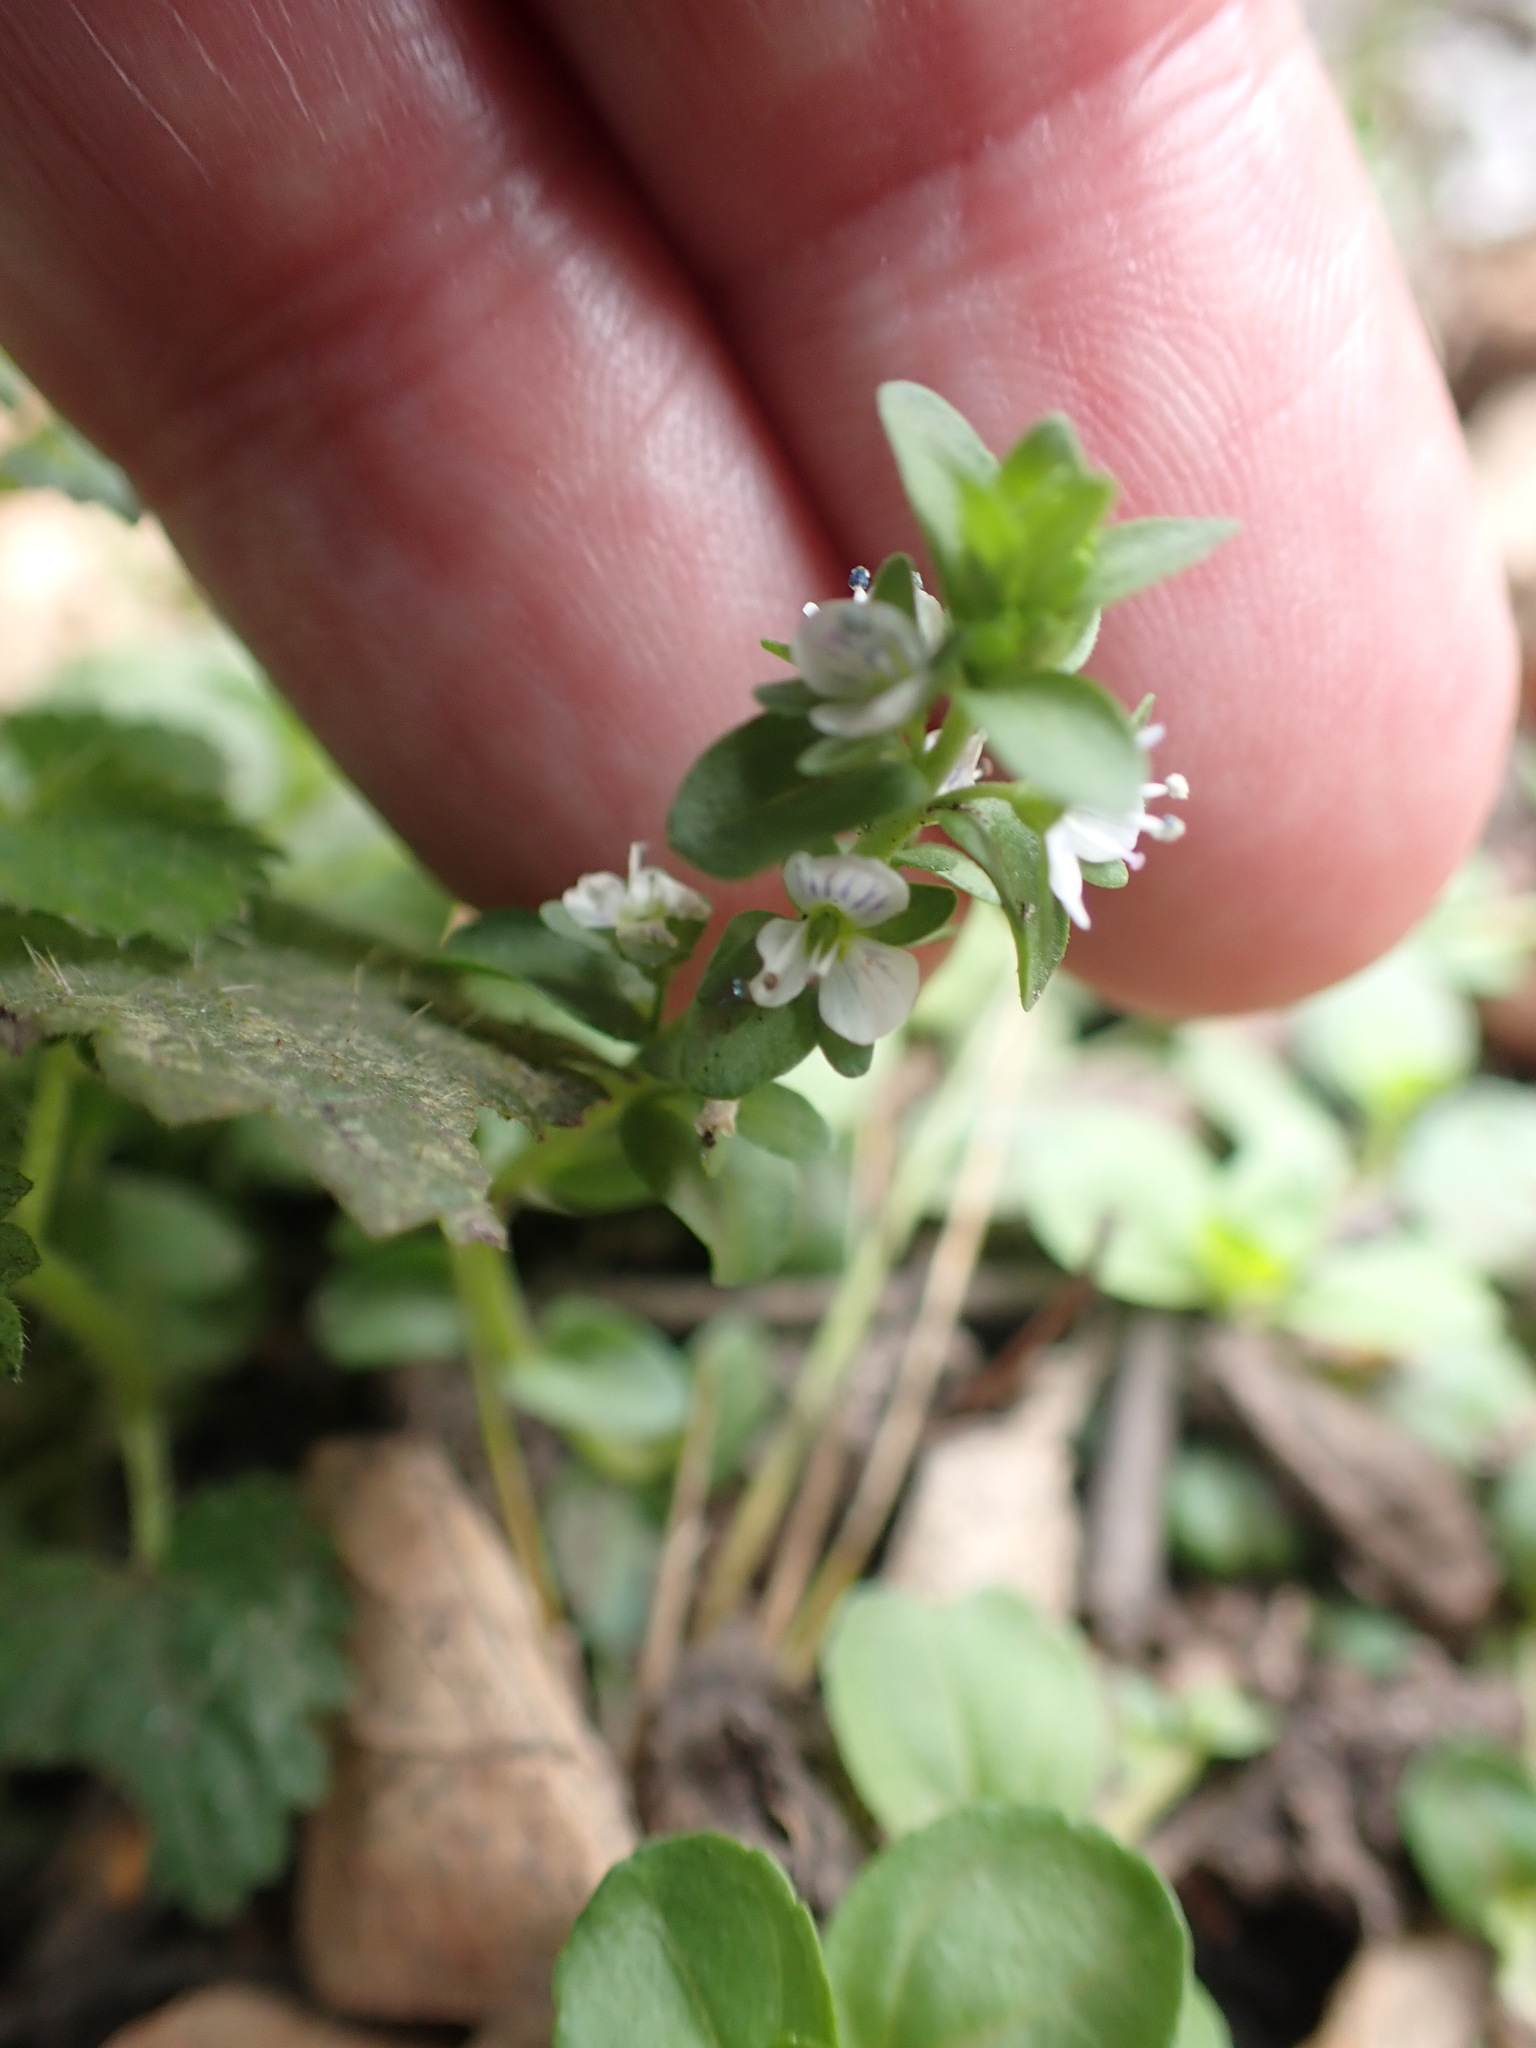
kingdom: Plantae
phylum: Tracheophyta
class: Magnoliopsida
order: Lamiales
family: Plantaginaceae
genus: Veronica
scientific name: Veronica serpyllifolia
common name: Thyme-leaved speedwell
